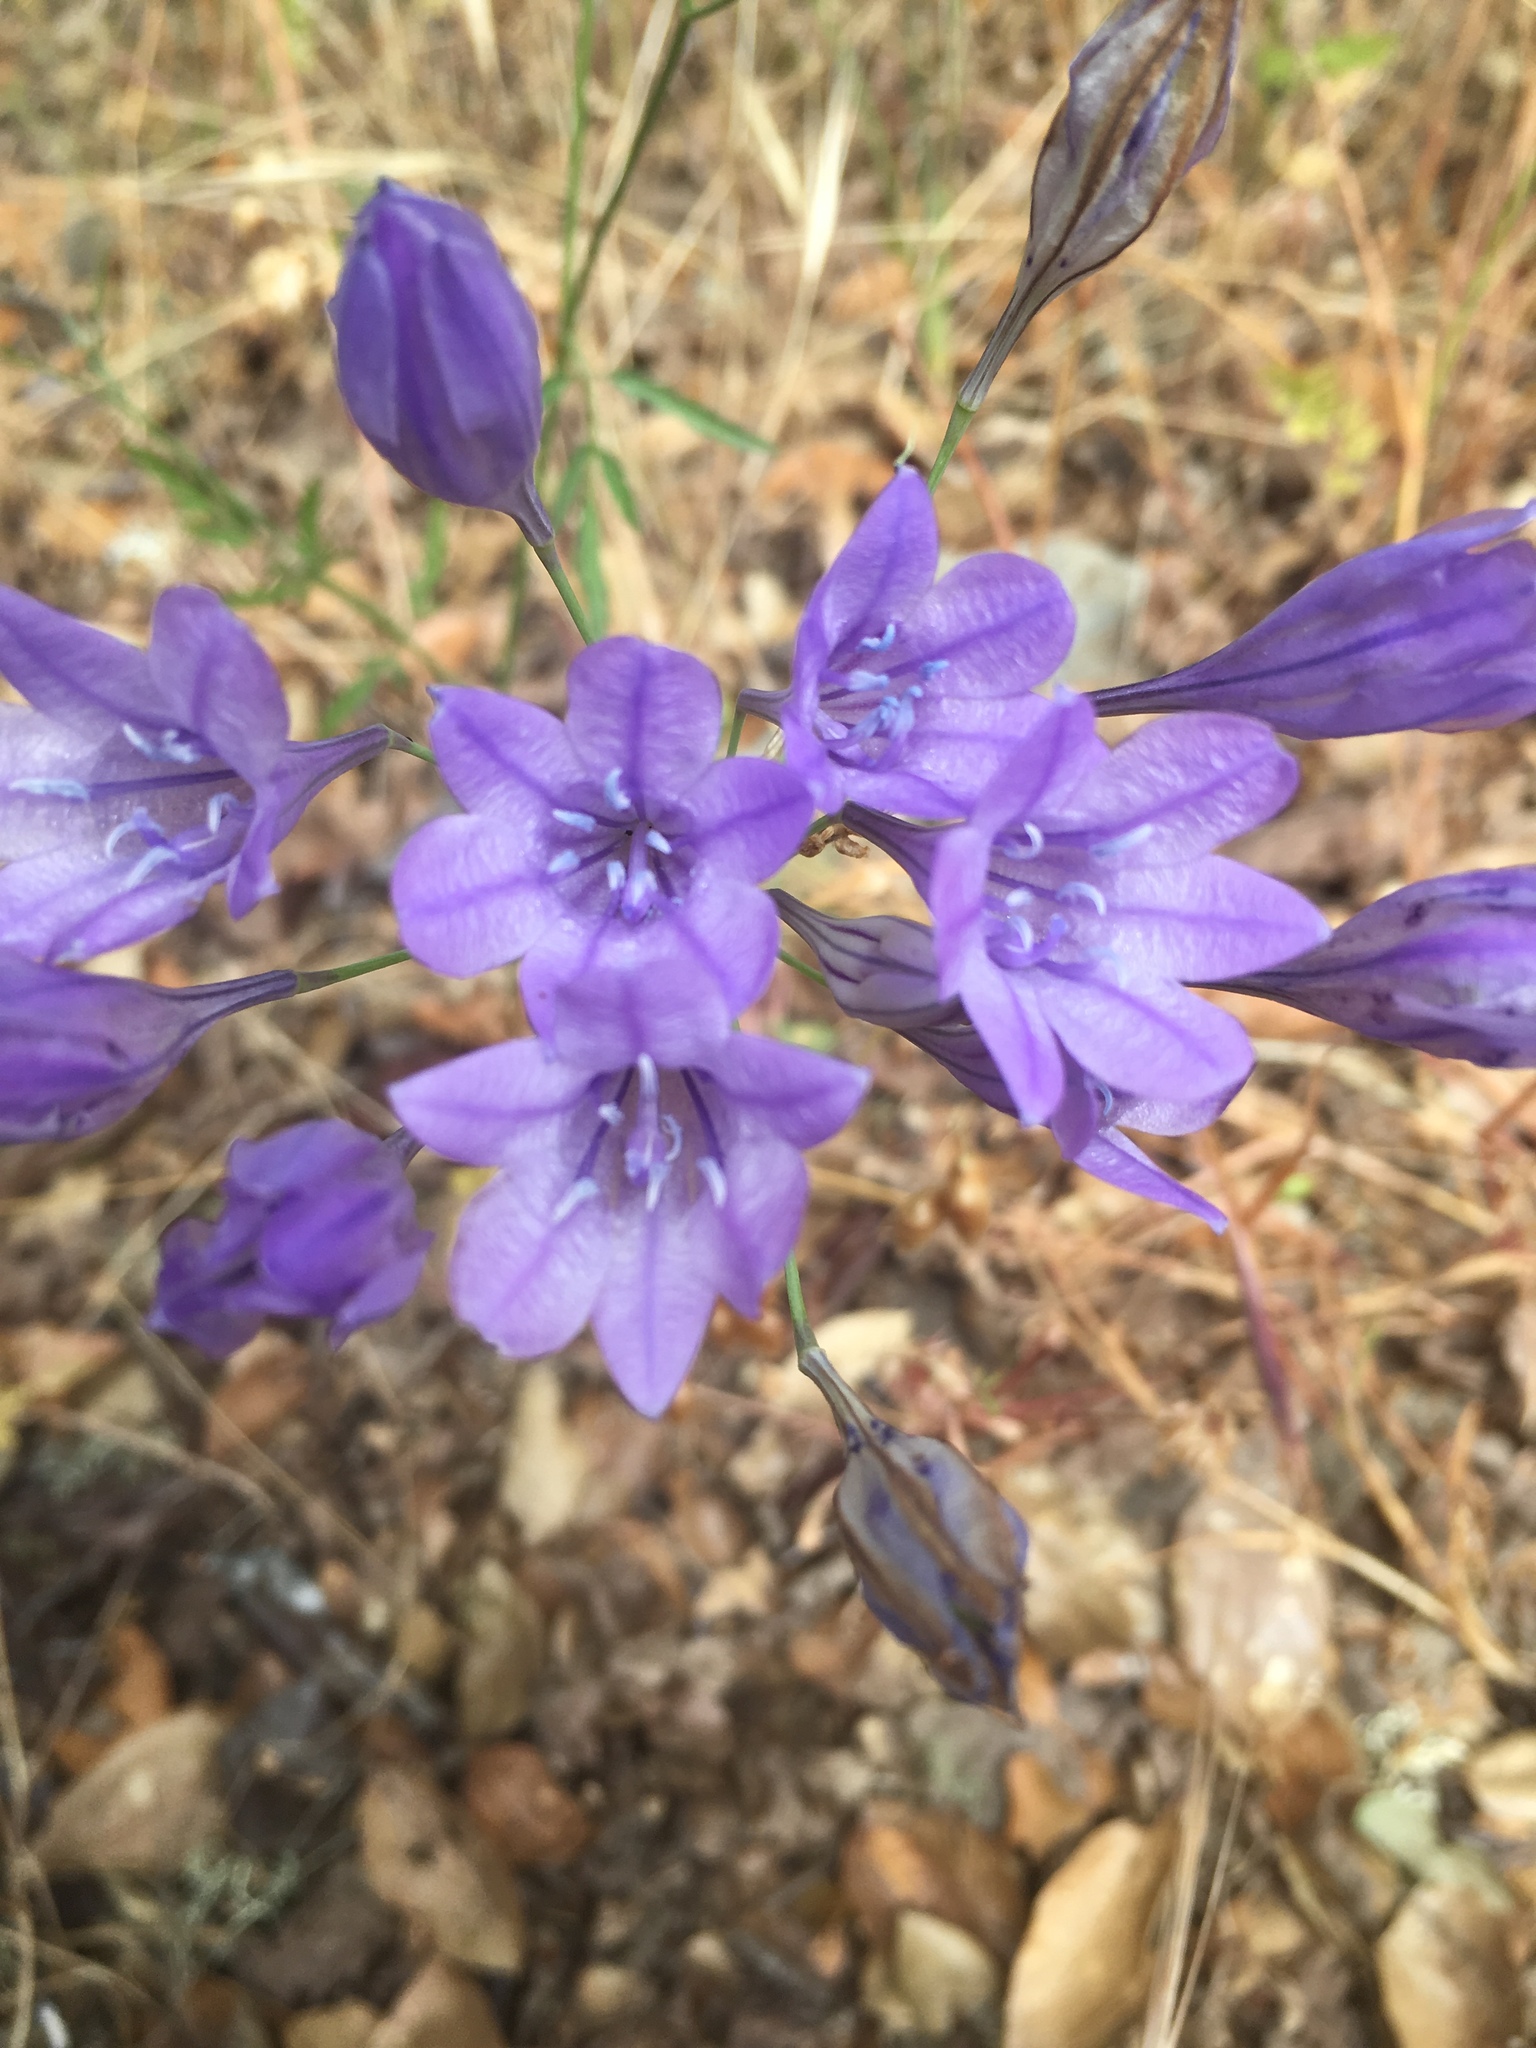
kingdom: Plantae
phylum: Tracheophyta
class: Liliopsida
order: Asparagales
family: Asparagaceae
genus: Triteleia
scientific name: Triteleia laxa
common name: Triplet-lily
